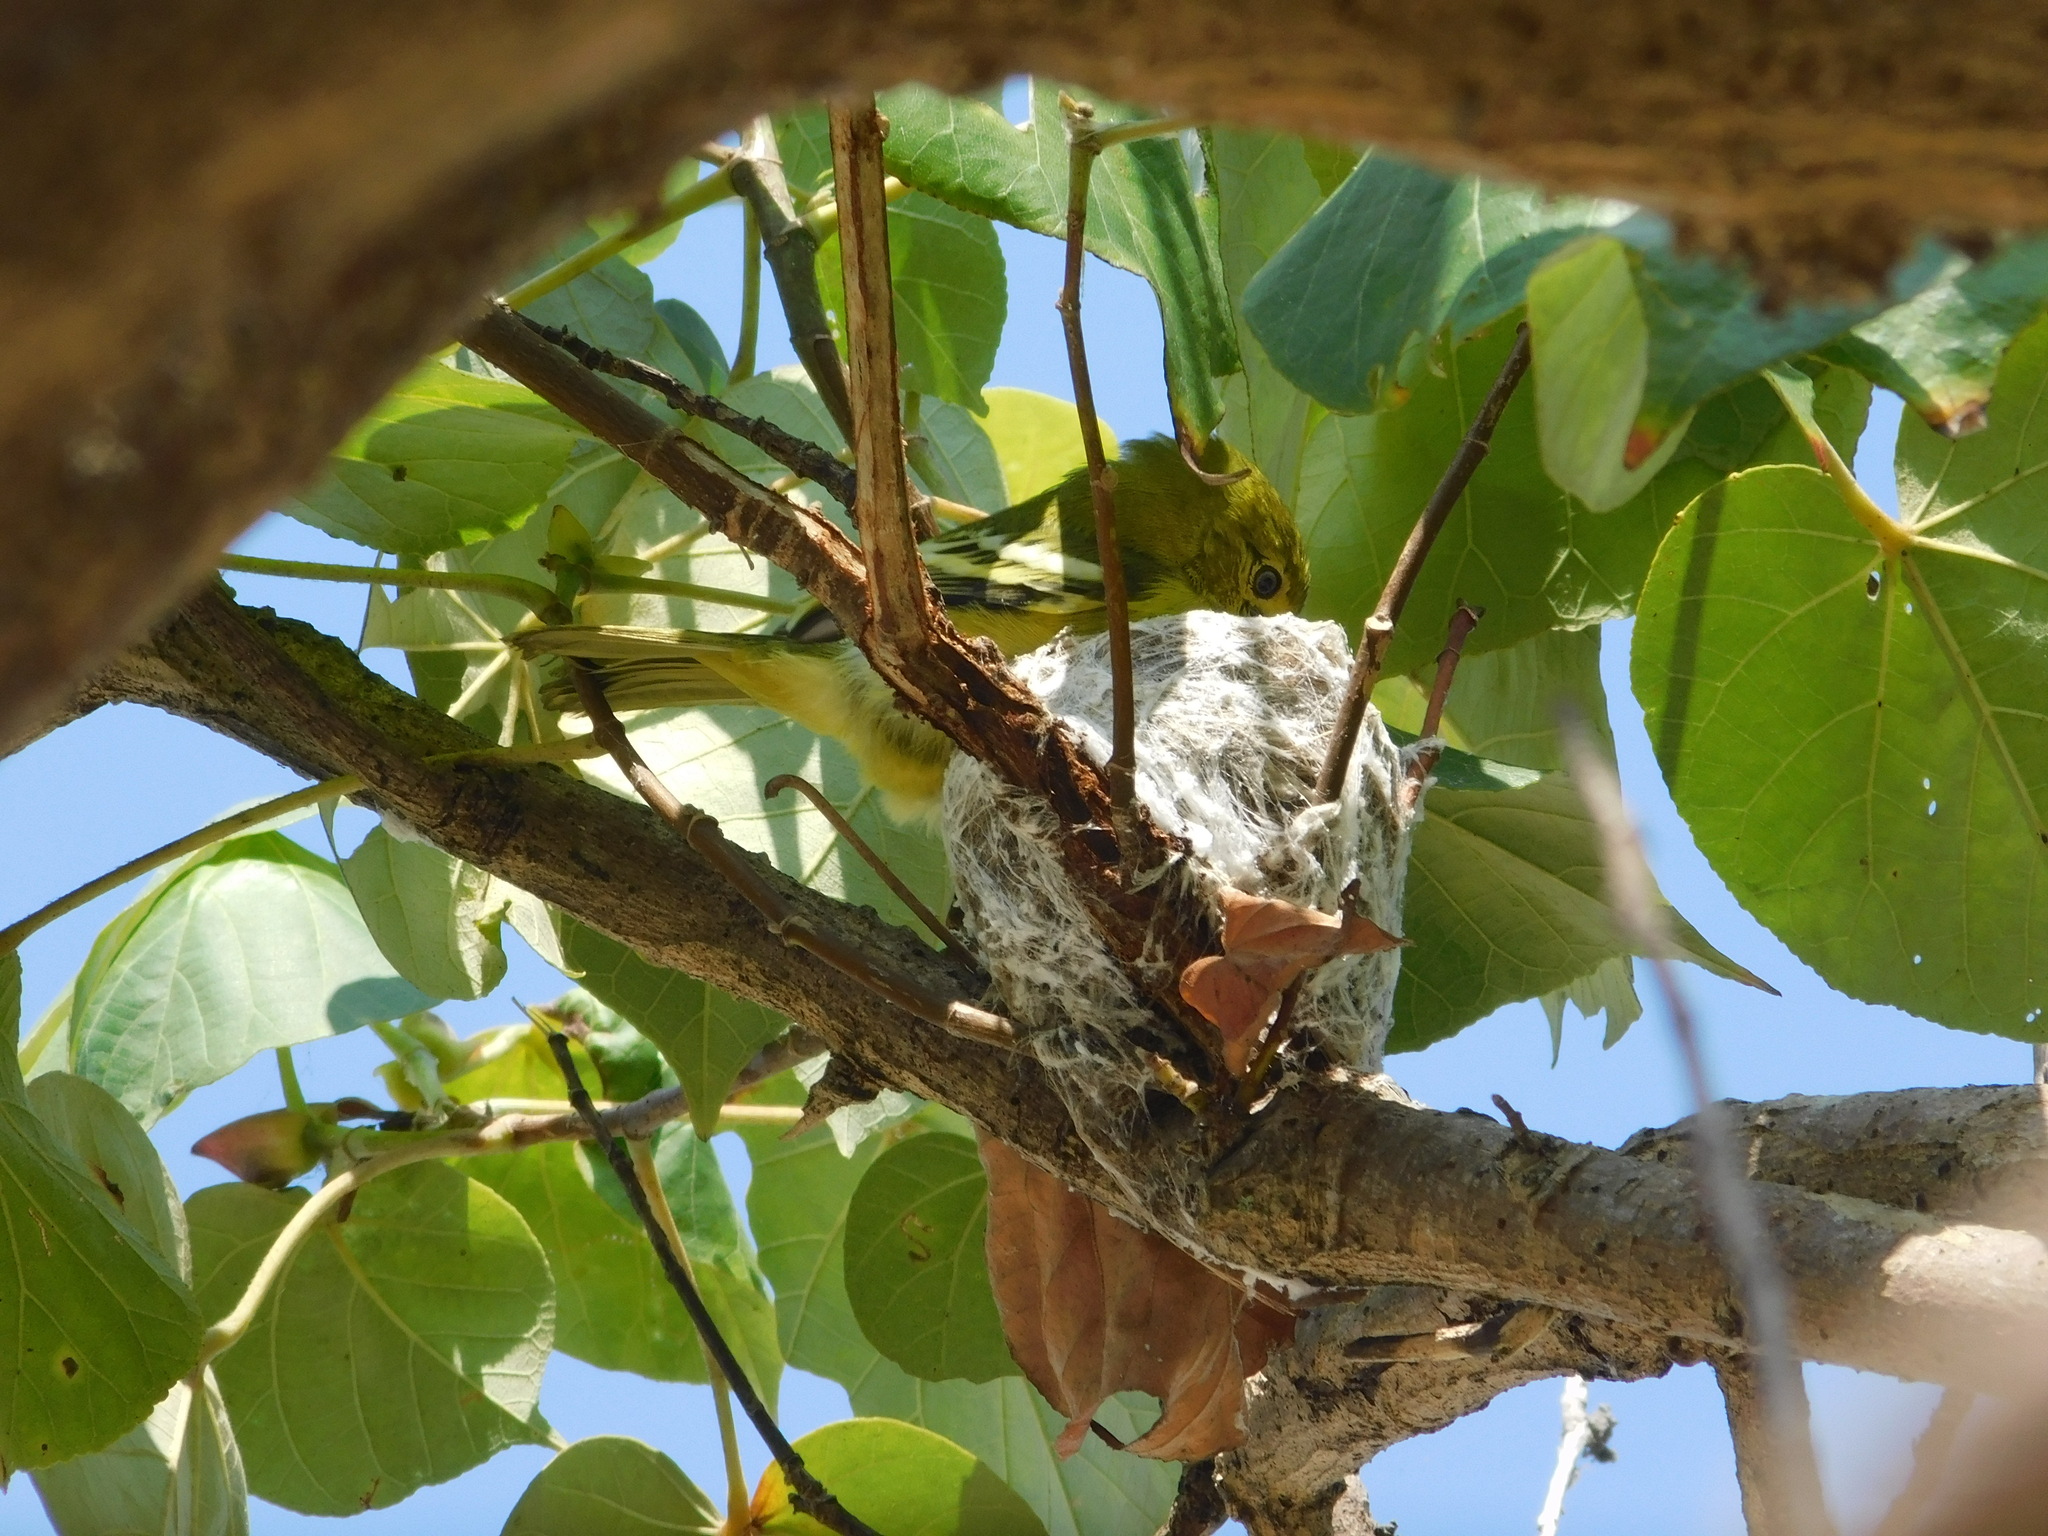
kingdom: Animalia
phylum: Chordata
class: Aves
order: Passeriformes
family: Aegithinidae
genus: Aegithina
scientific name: Aegithina tiphia
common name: Common iora
